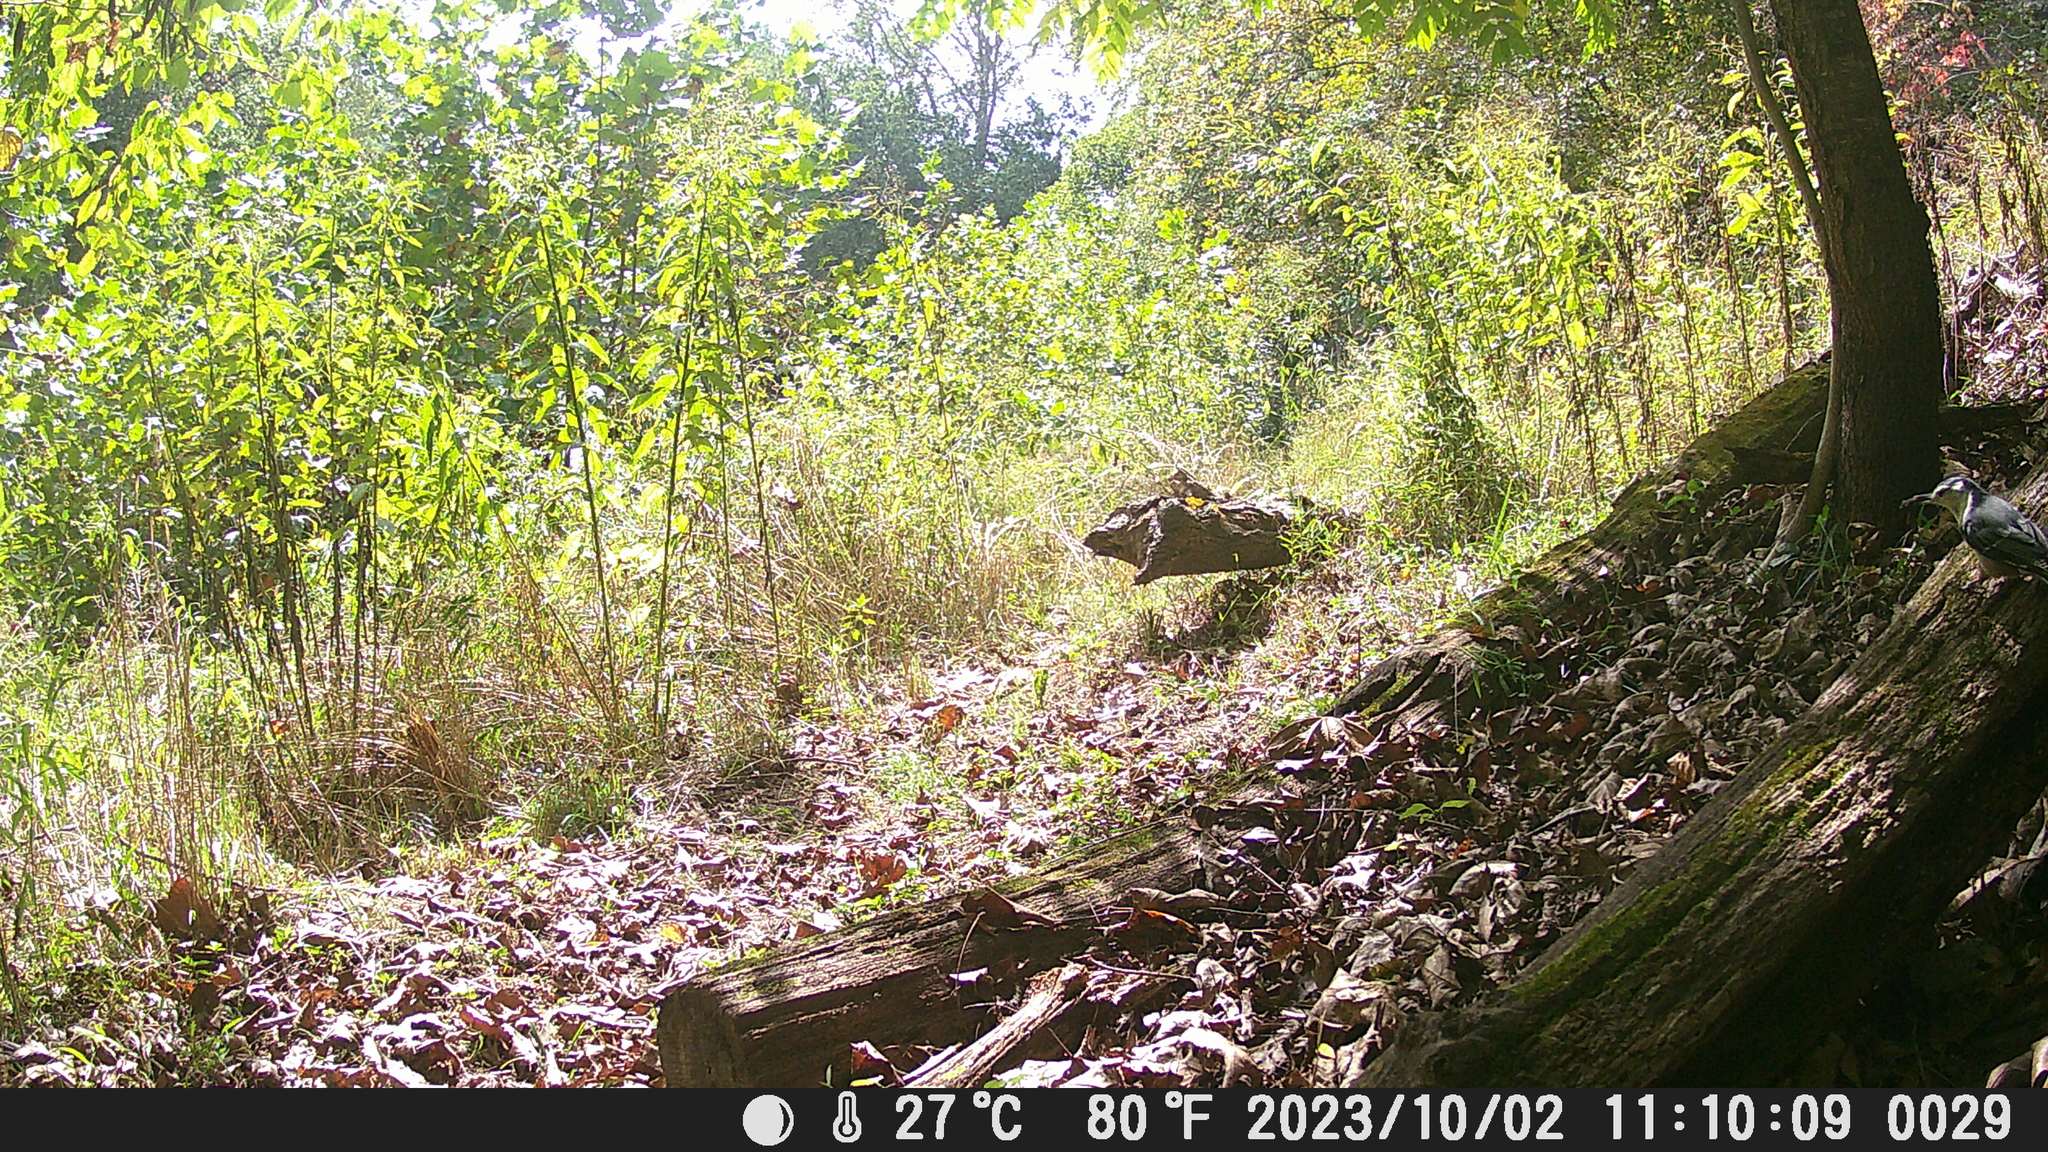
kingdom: Animalia
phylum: Chordata
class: Aves
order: Passeriformes
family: Sittidae
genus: Sitta
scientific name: Sitta carolinensis
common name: White-breasted nuthatch
